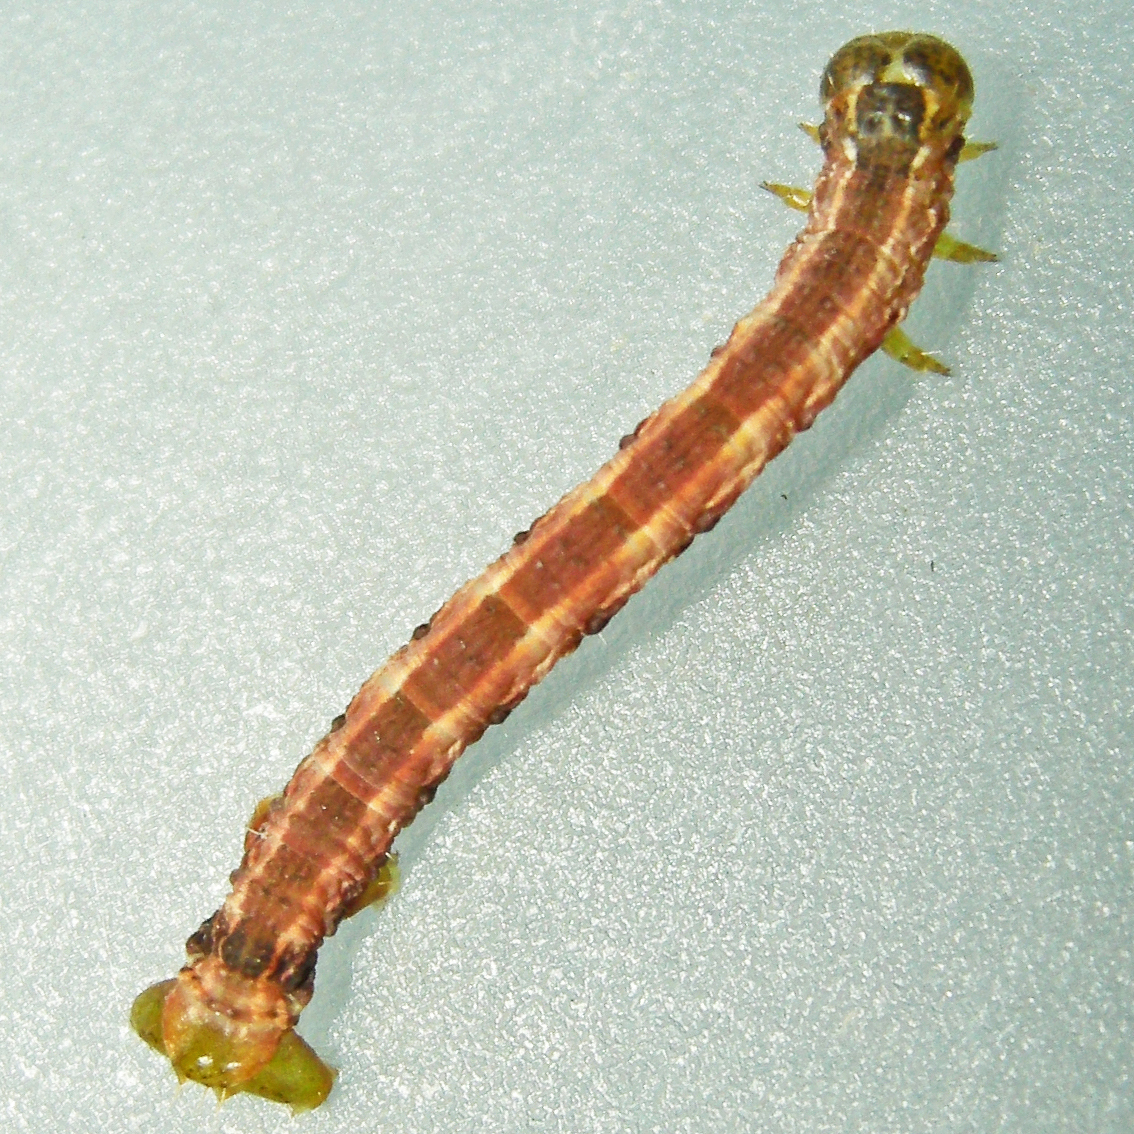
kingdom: Animalia
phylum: Arthropoda
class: Insecta
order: Lepidoptera
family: Geometridae
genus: Alsophila
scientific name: Alsophila pometaria
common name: Fall cankerworm
